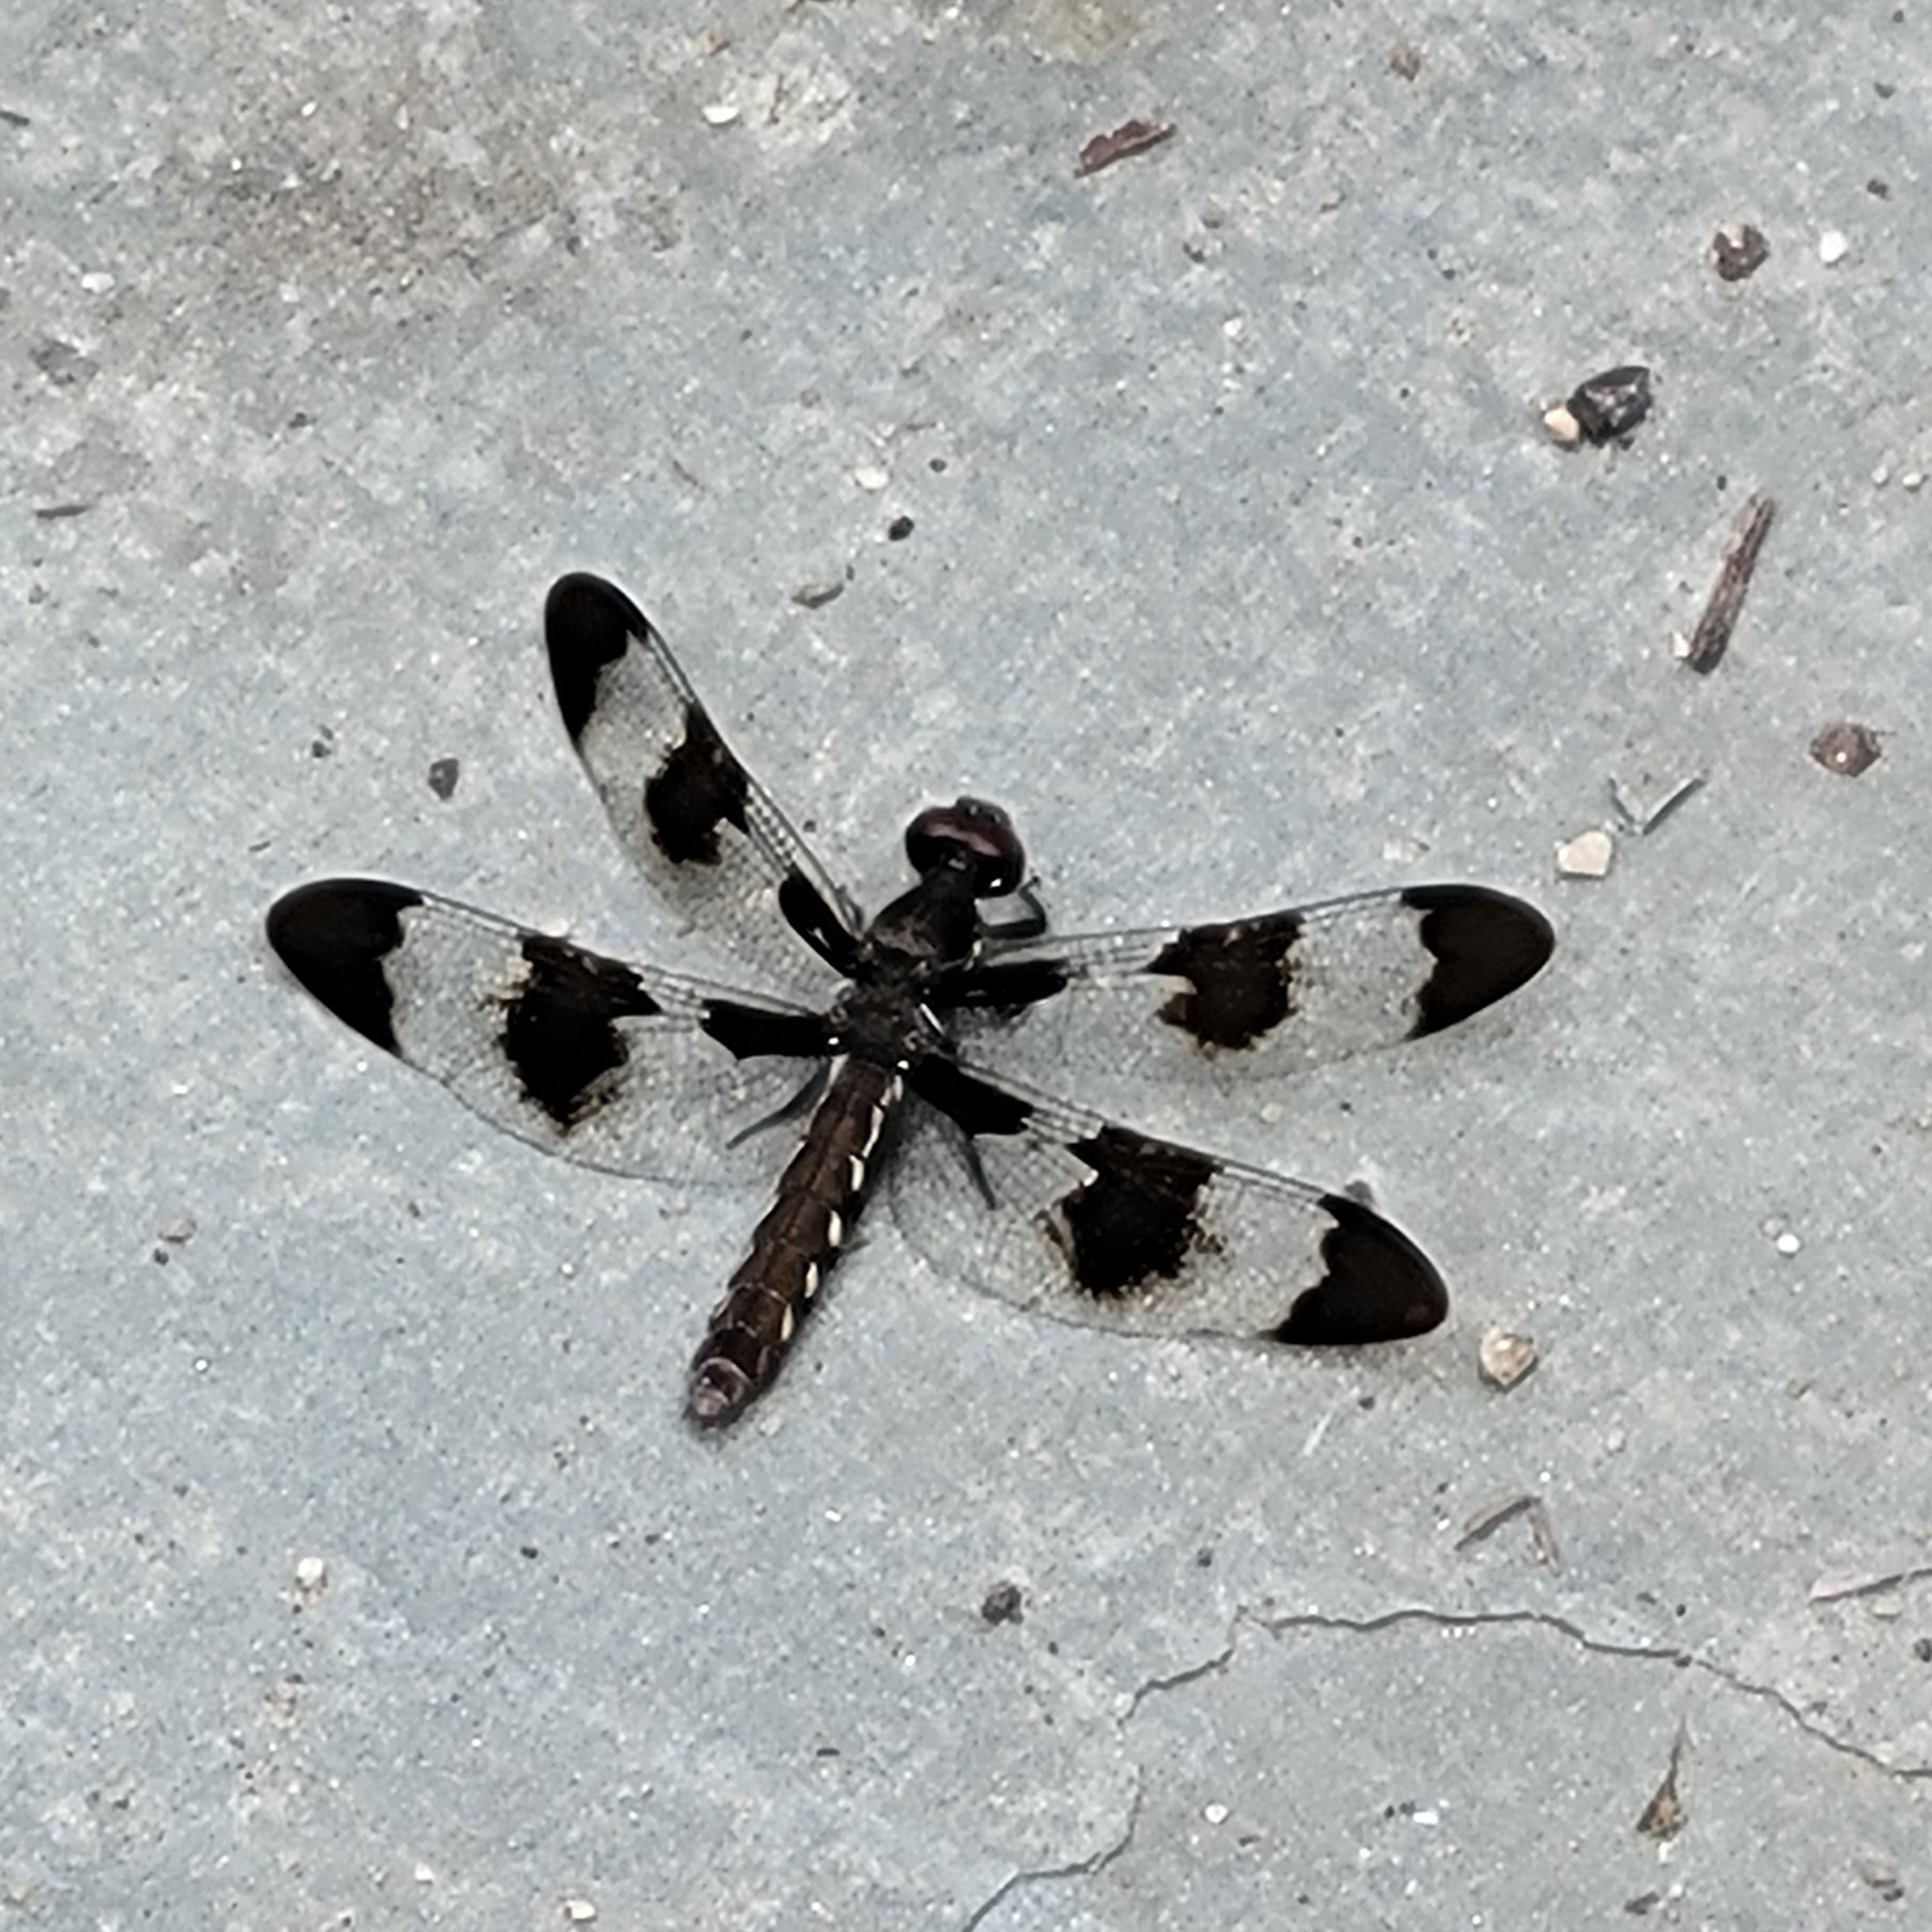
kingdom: Animalia
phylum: Arthropoda
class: Insecta
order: Odonata
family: Libellulidae
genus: Plathemis
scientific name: Plathemis lydia
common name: Common whitetail
